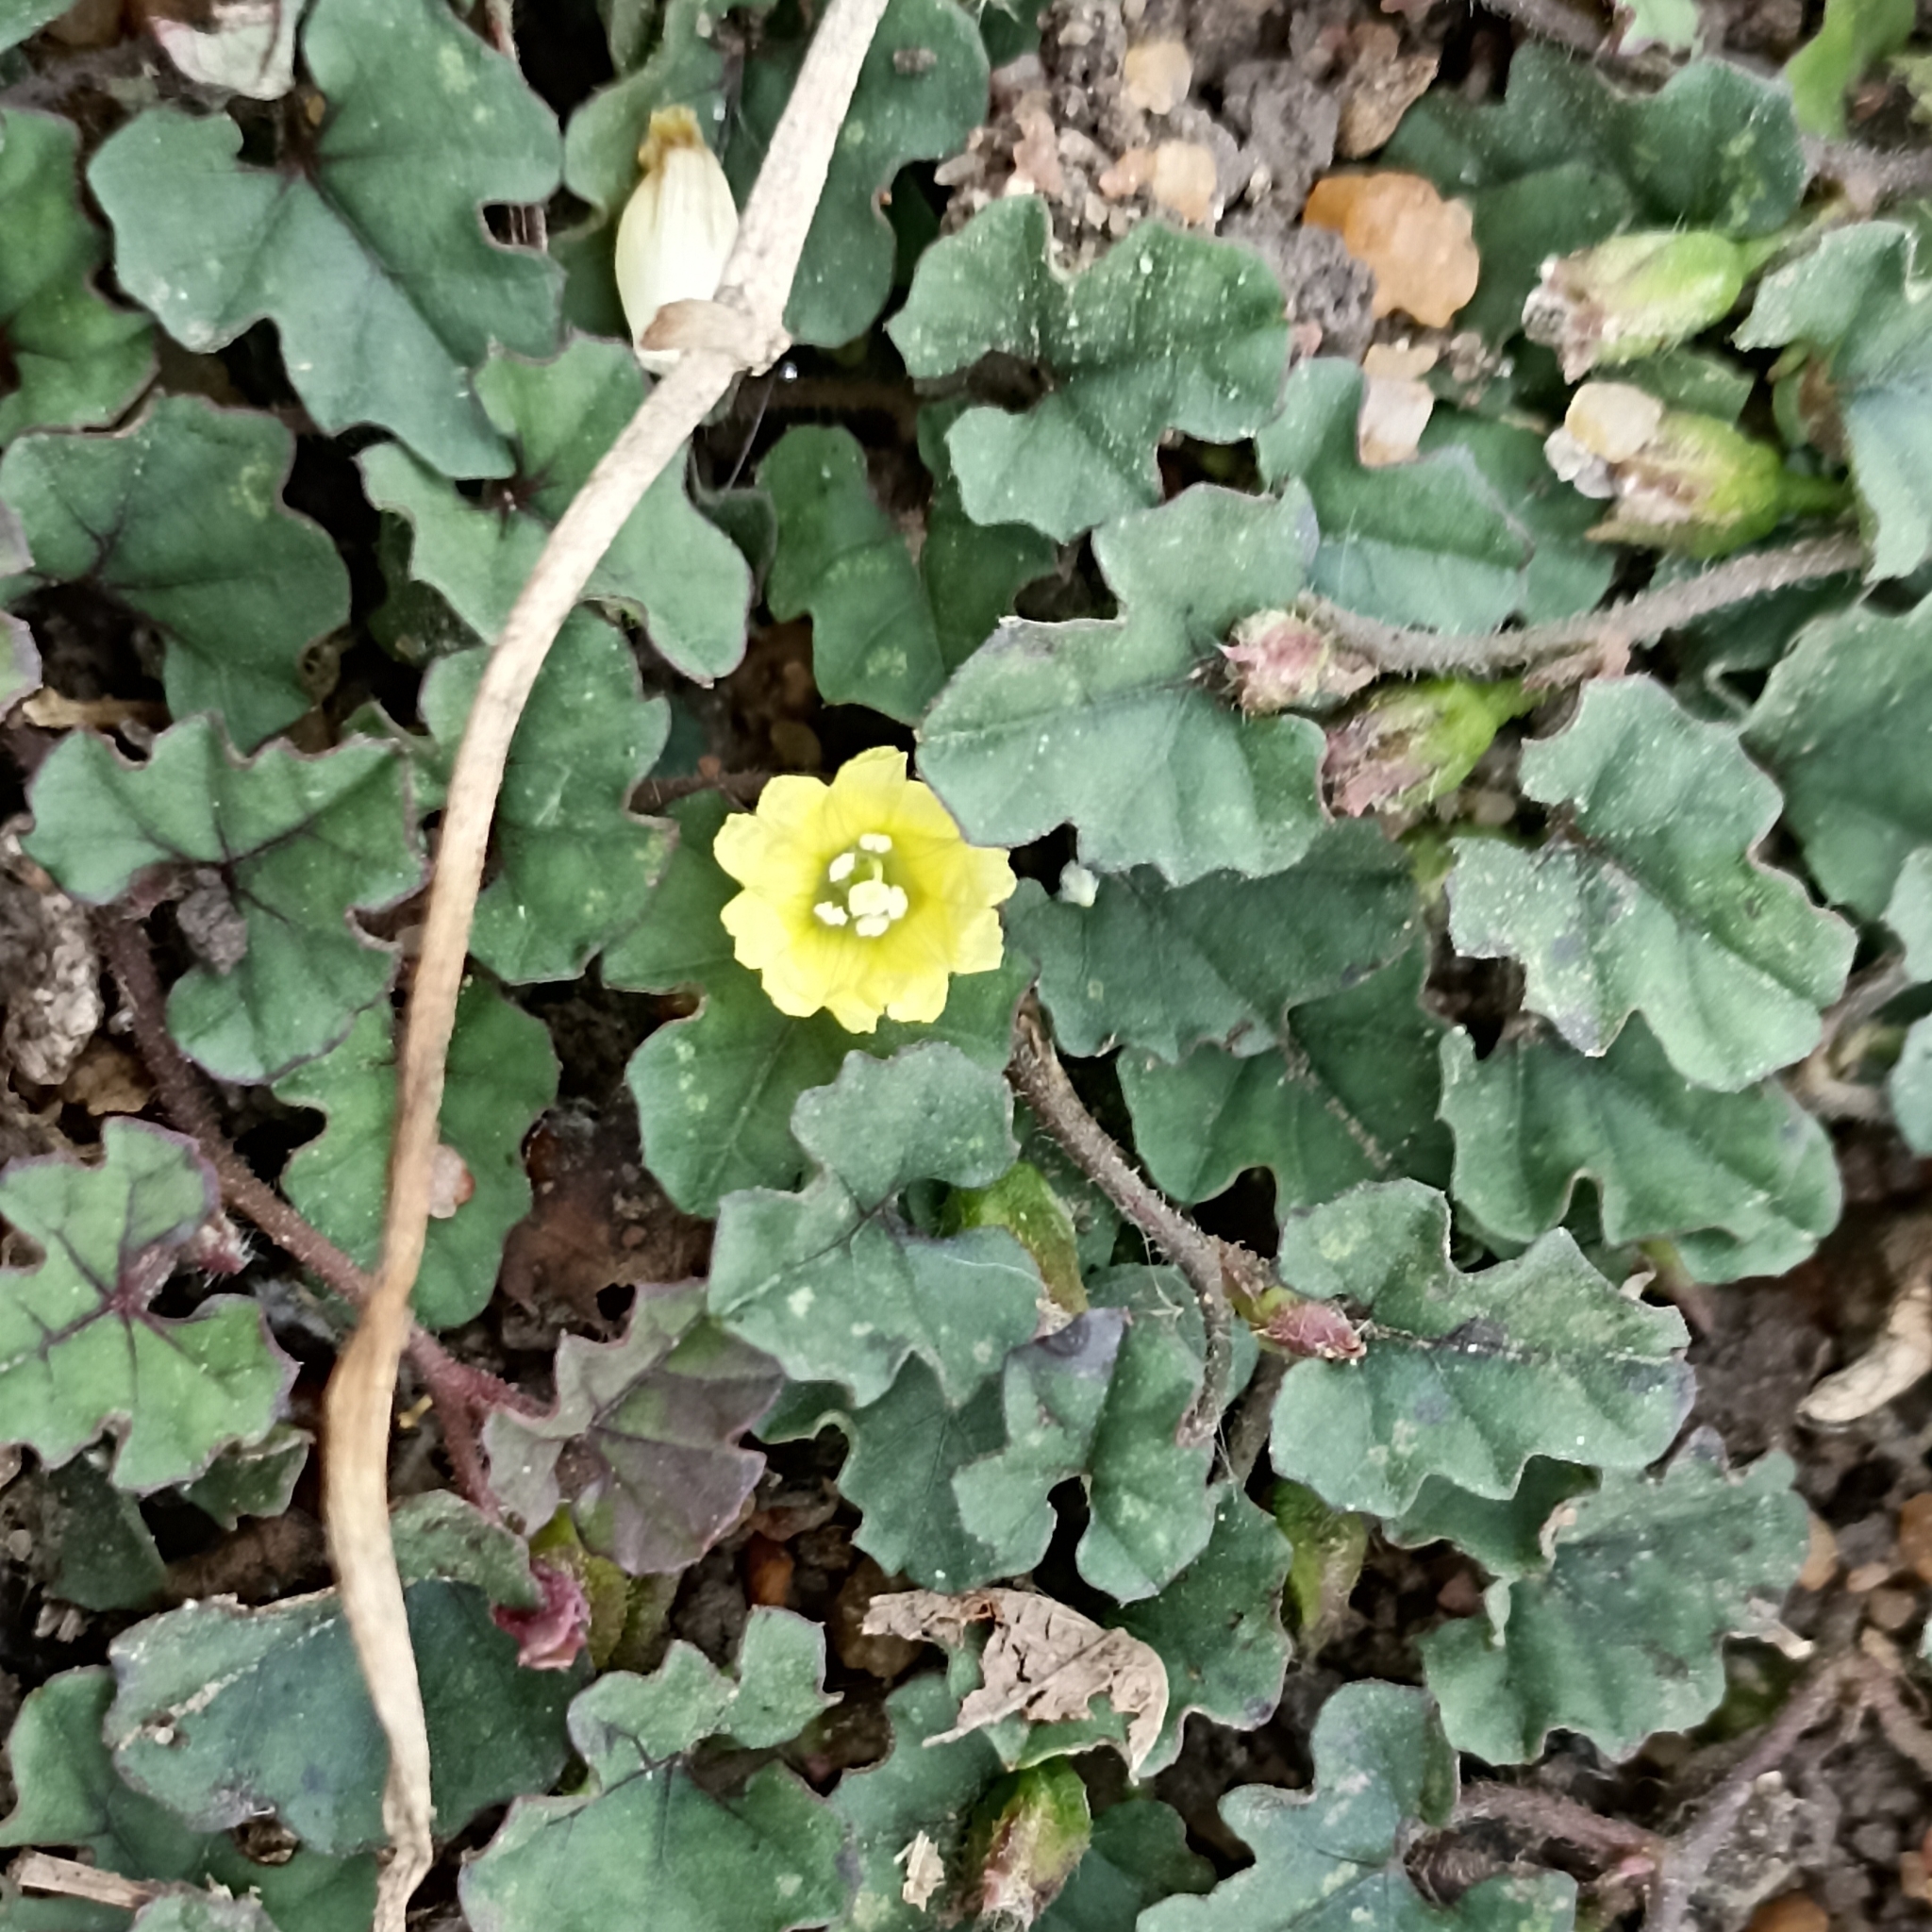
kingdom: Plantae
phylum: Tracheophyta
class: Magnoliopsida
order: Solanales
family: Convolvulaceae
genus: Merremia
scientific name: Merremia emarginata
